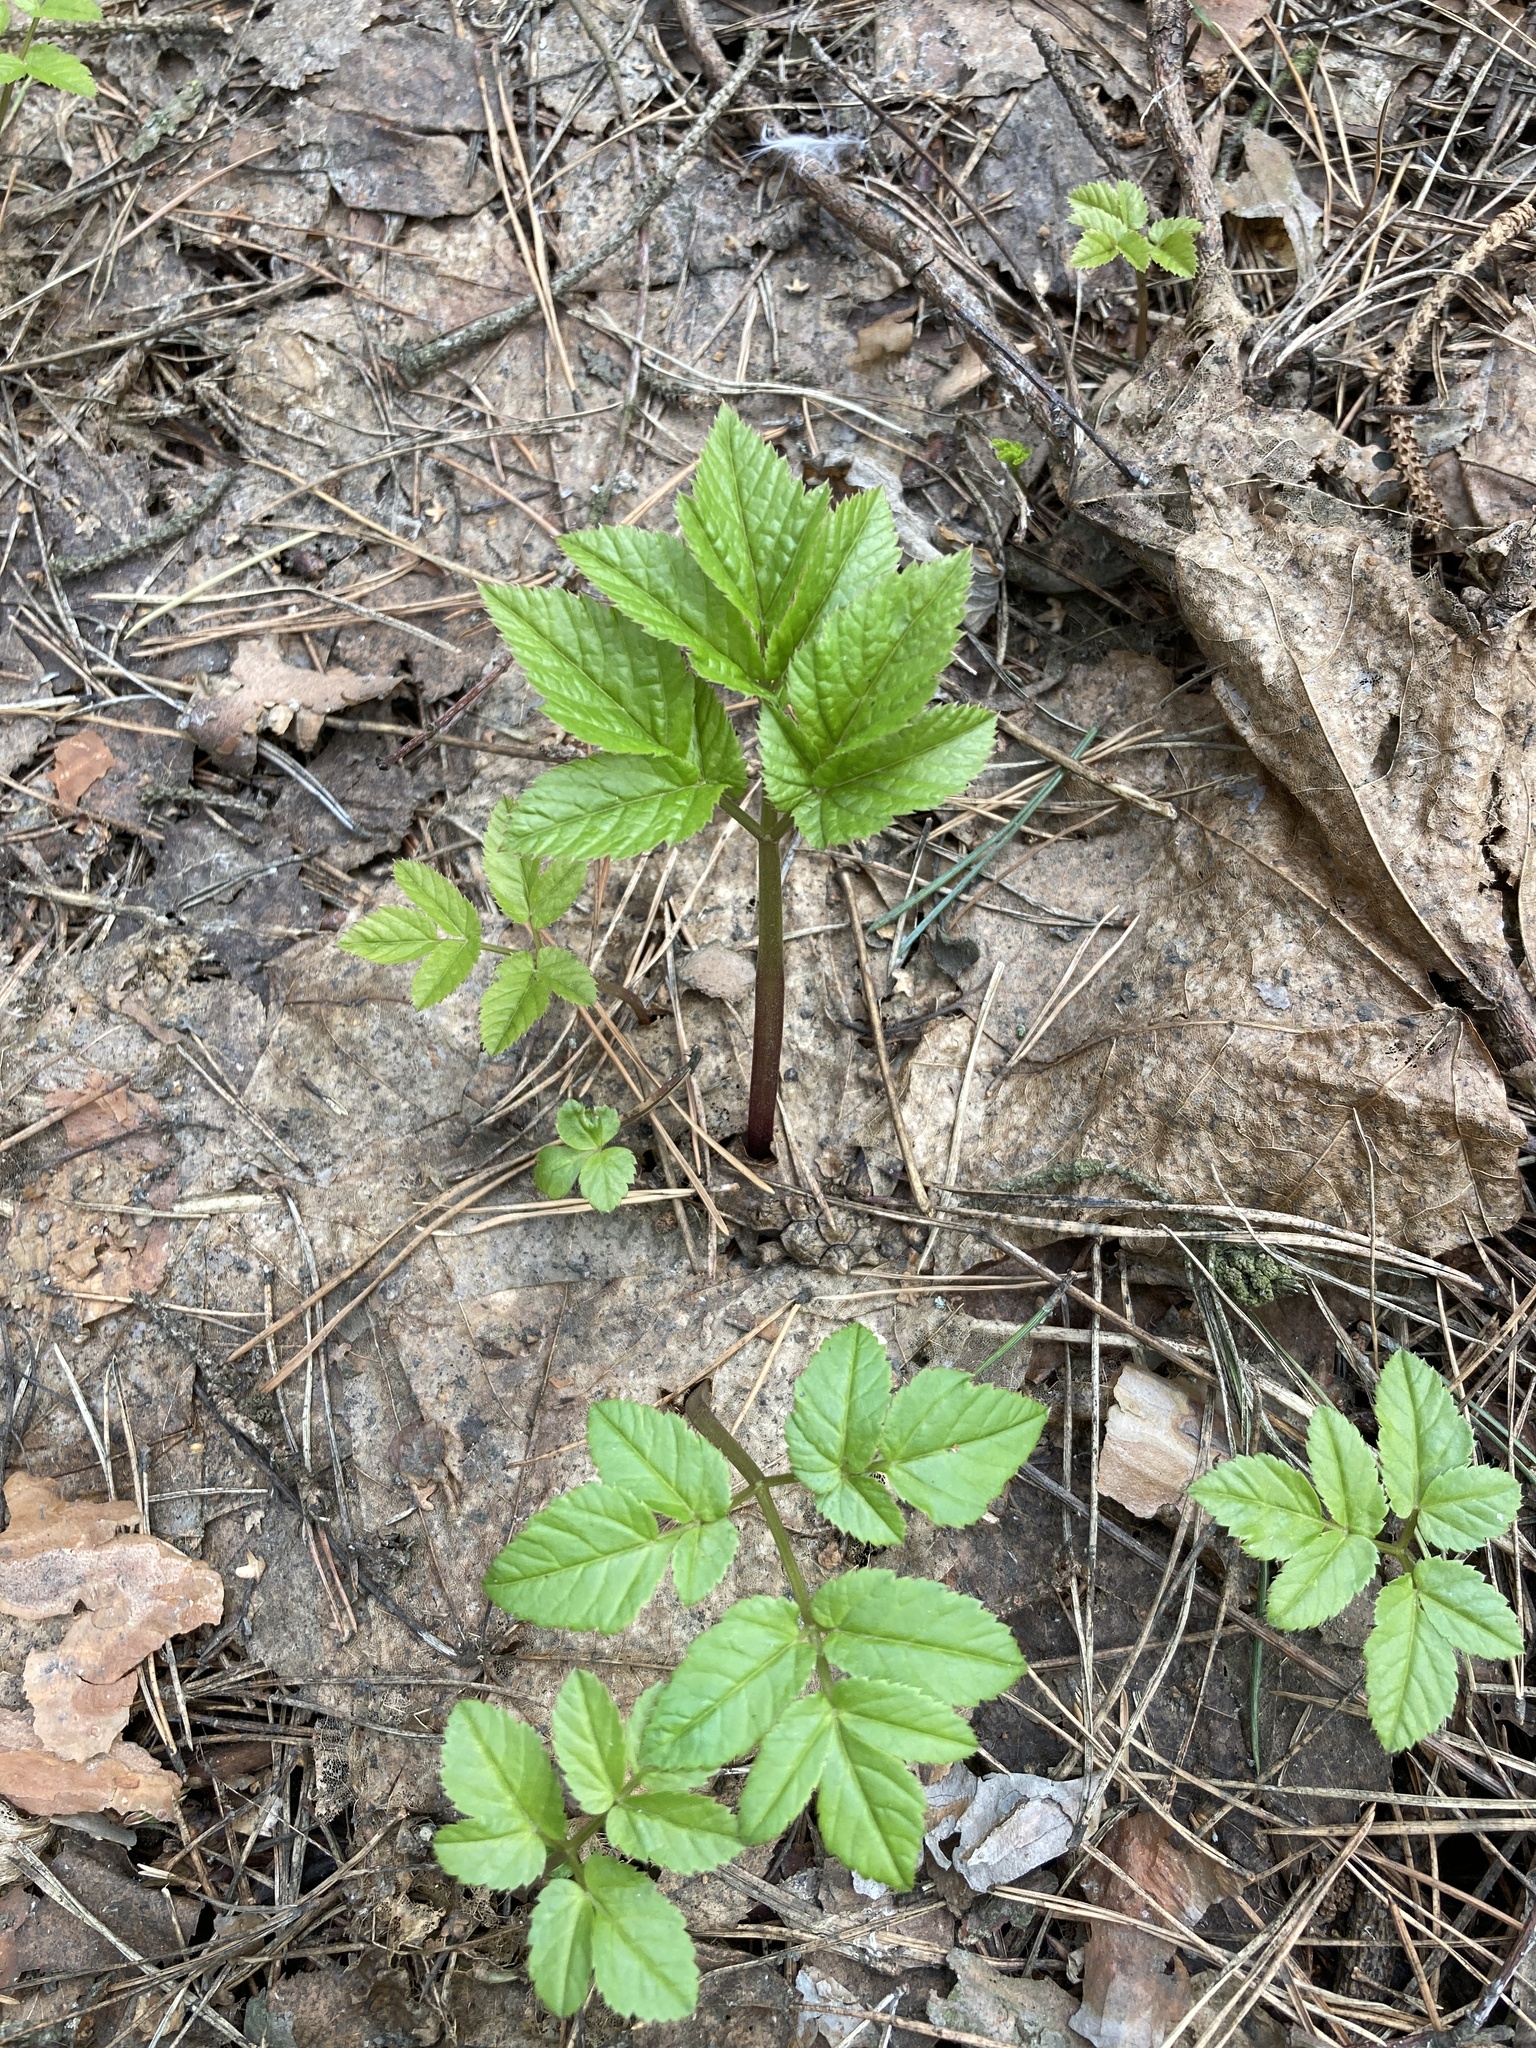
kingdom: Plantae
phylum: Tracheophyta
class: Magnoliopsida
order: Apiales
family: Apiaceae
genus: Aegopodium
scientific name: Aegopodium podagraria
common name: Ground-elder
